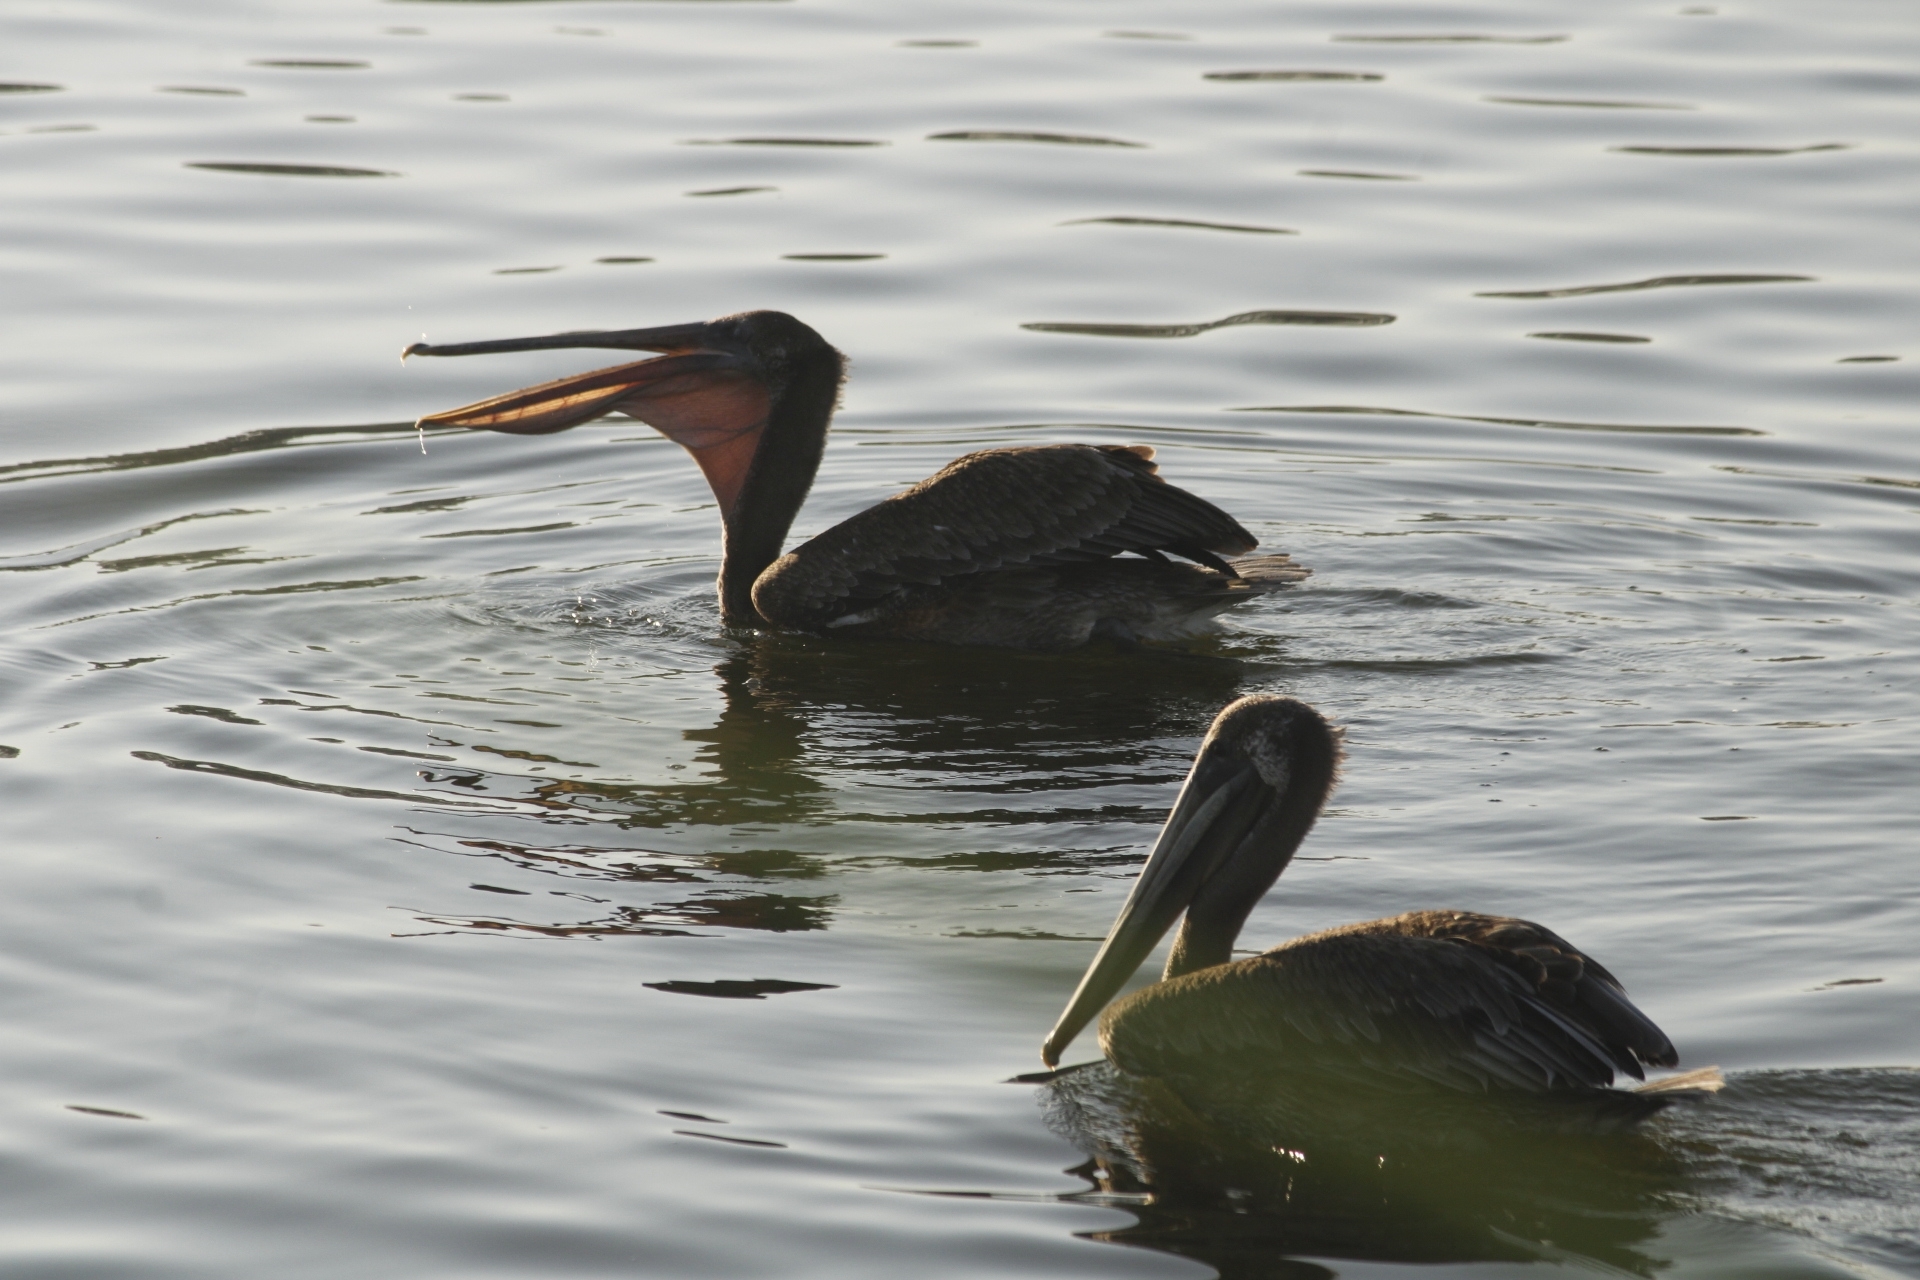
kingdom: Animalia
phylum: Chordata
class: Aves
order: Pelecaniformes
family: Pelecanidae
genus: Pelecanus
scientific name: Pelecanus occidentalis
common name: Brown pelican
